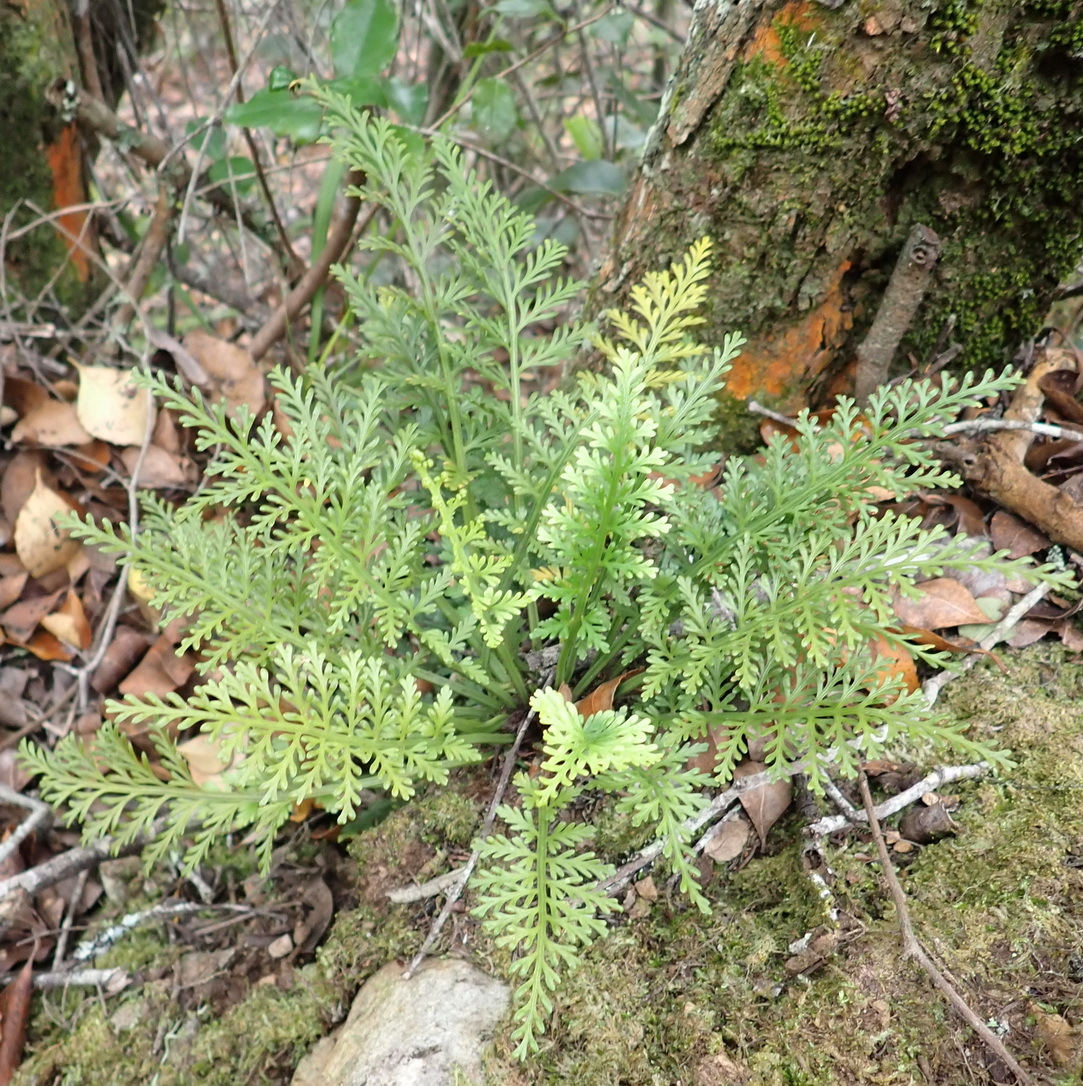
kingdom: Plantae
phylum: Tracheophyta
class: Polypodiopsida
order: Polypodiales
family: Aspleniaceae
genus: Asplenium
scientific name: Asplenium rutifolium
